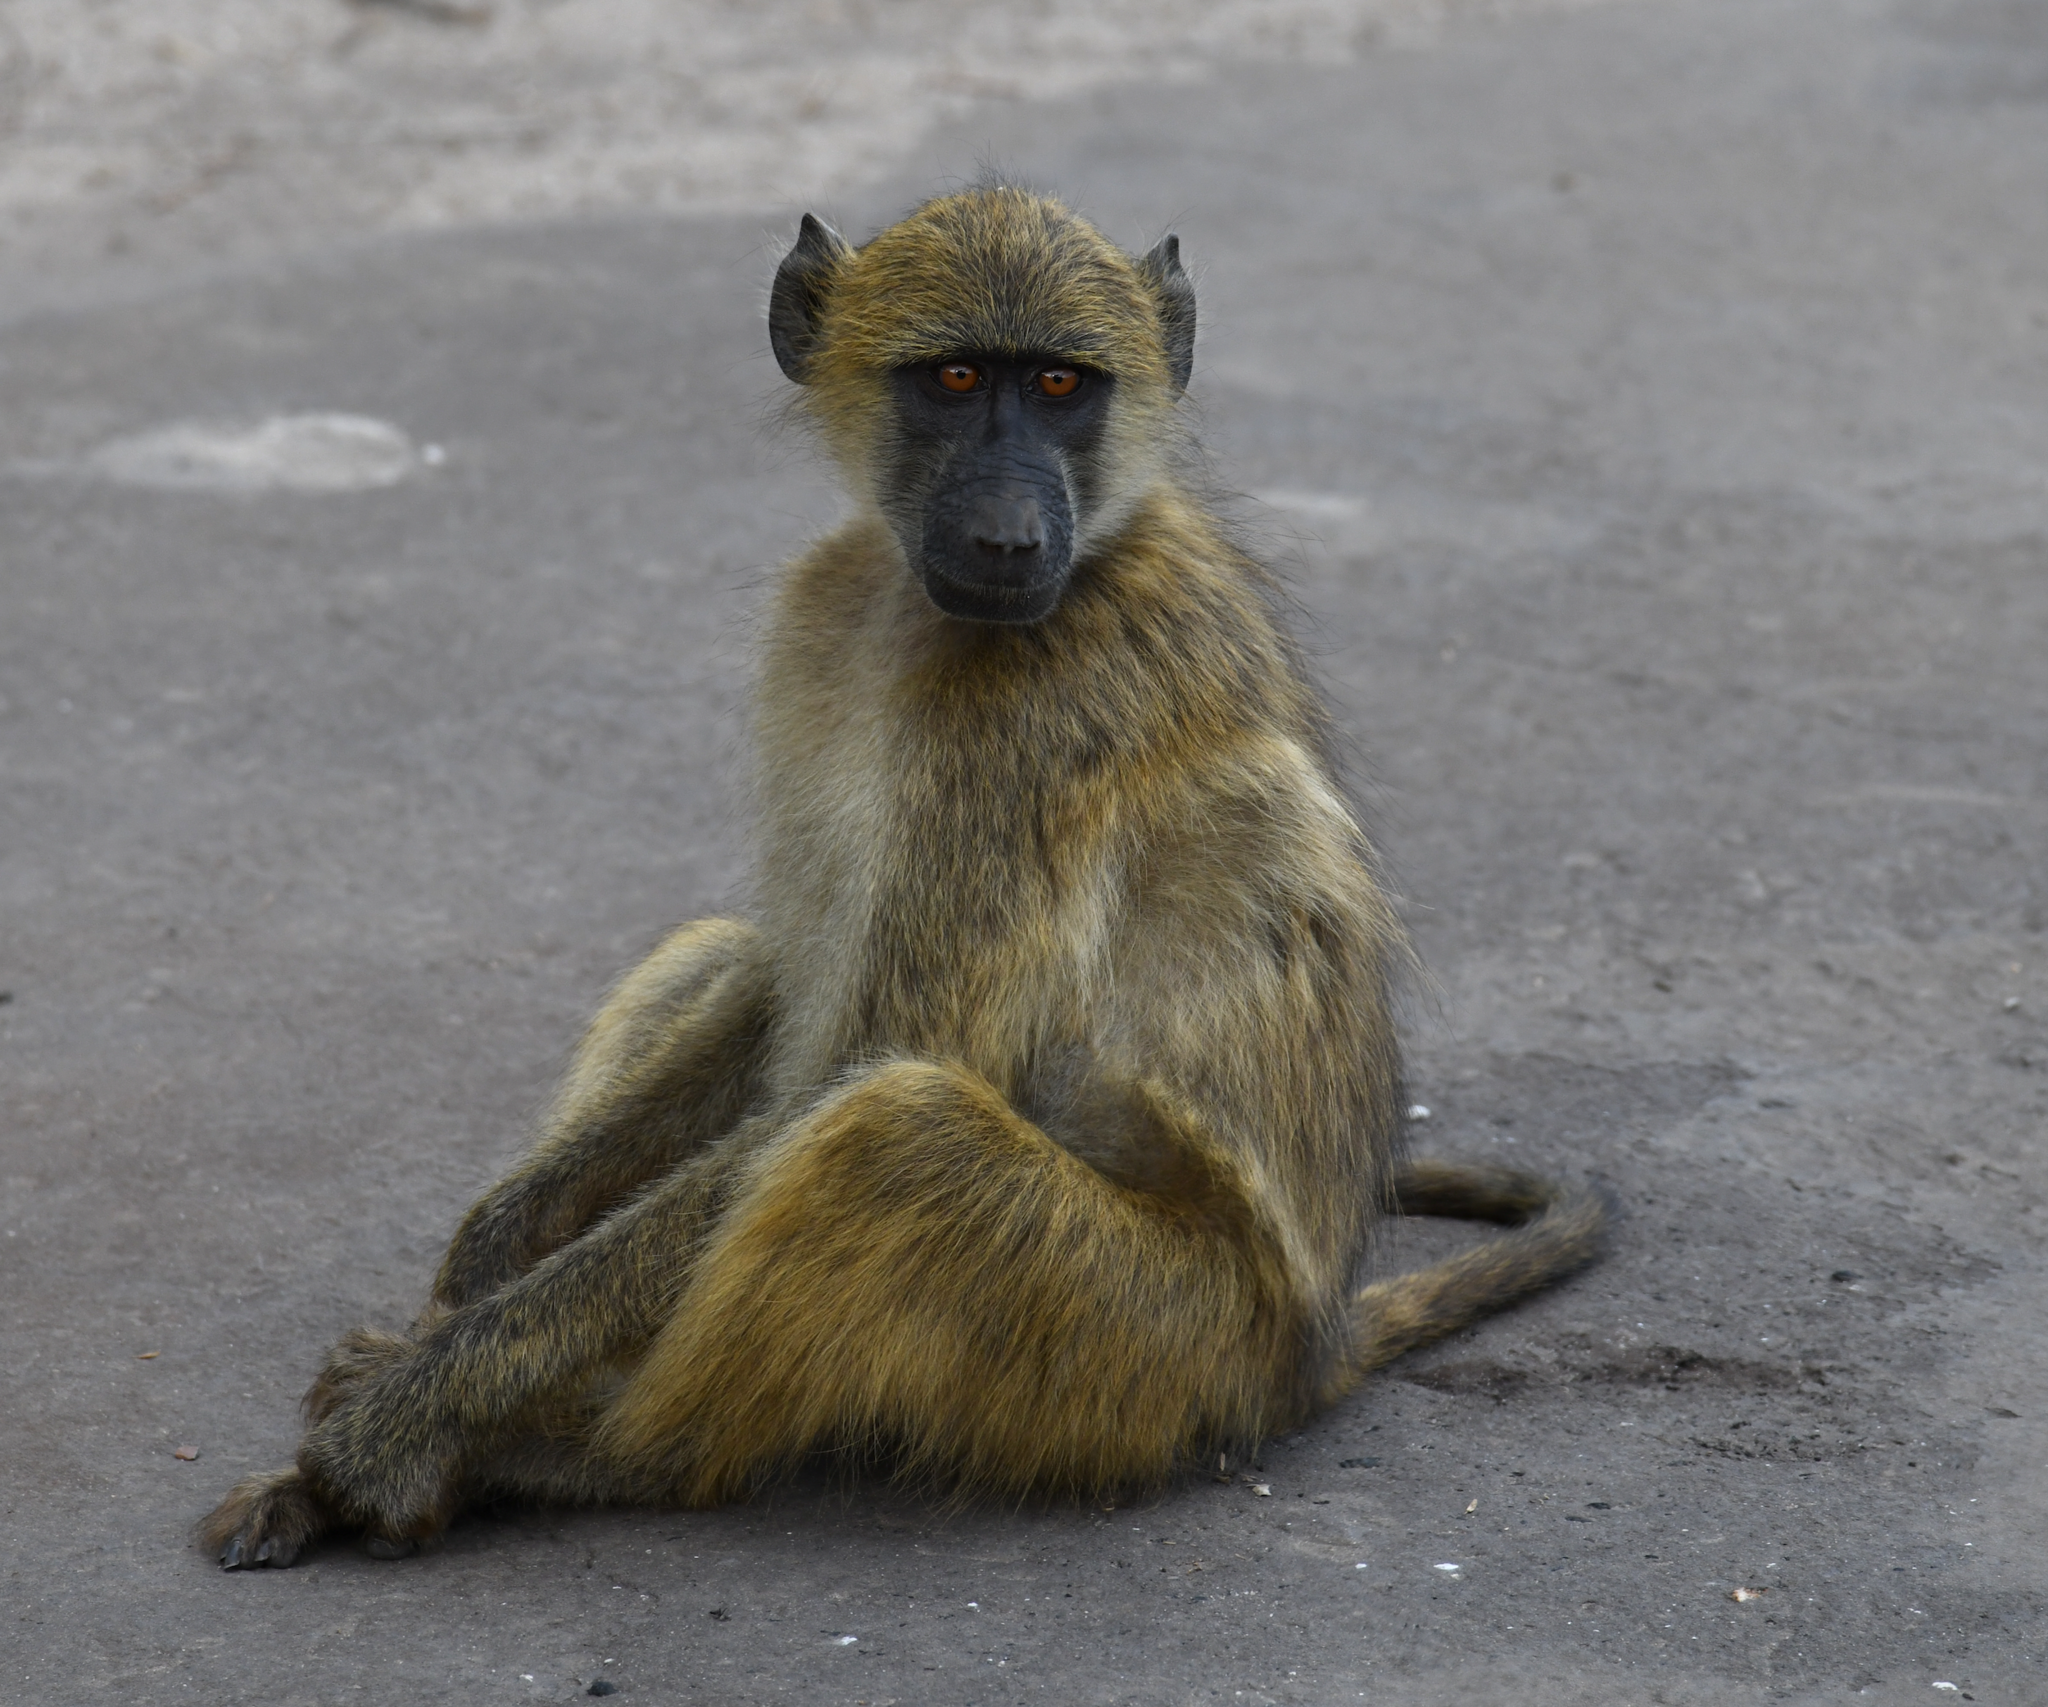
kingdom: Animalia
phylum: Chordata
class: Mammalia
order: Primates
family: Cercopithecidae
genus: Papio
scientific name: Papio ursinus
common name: Chacma baboon
